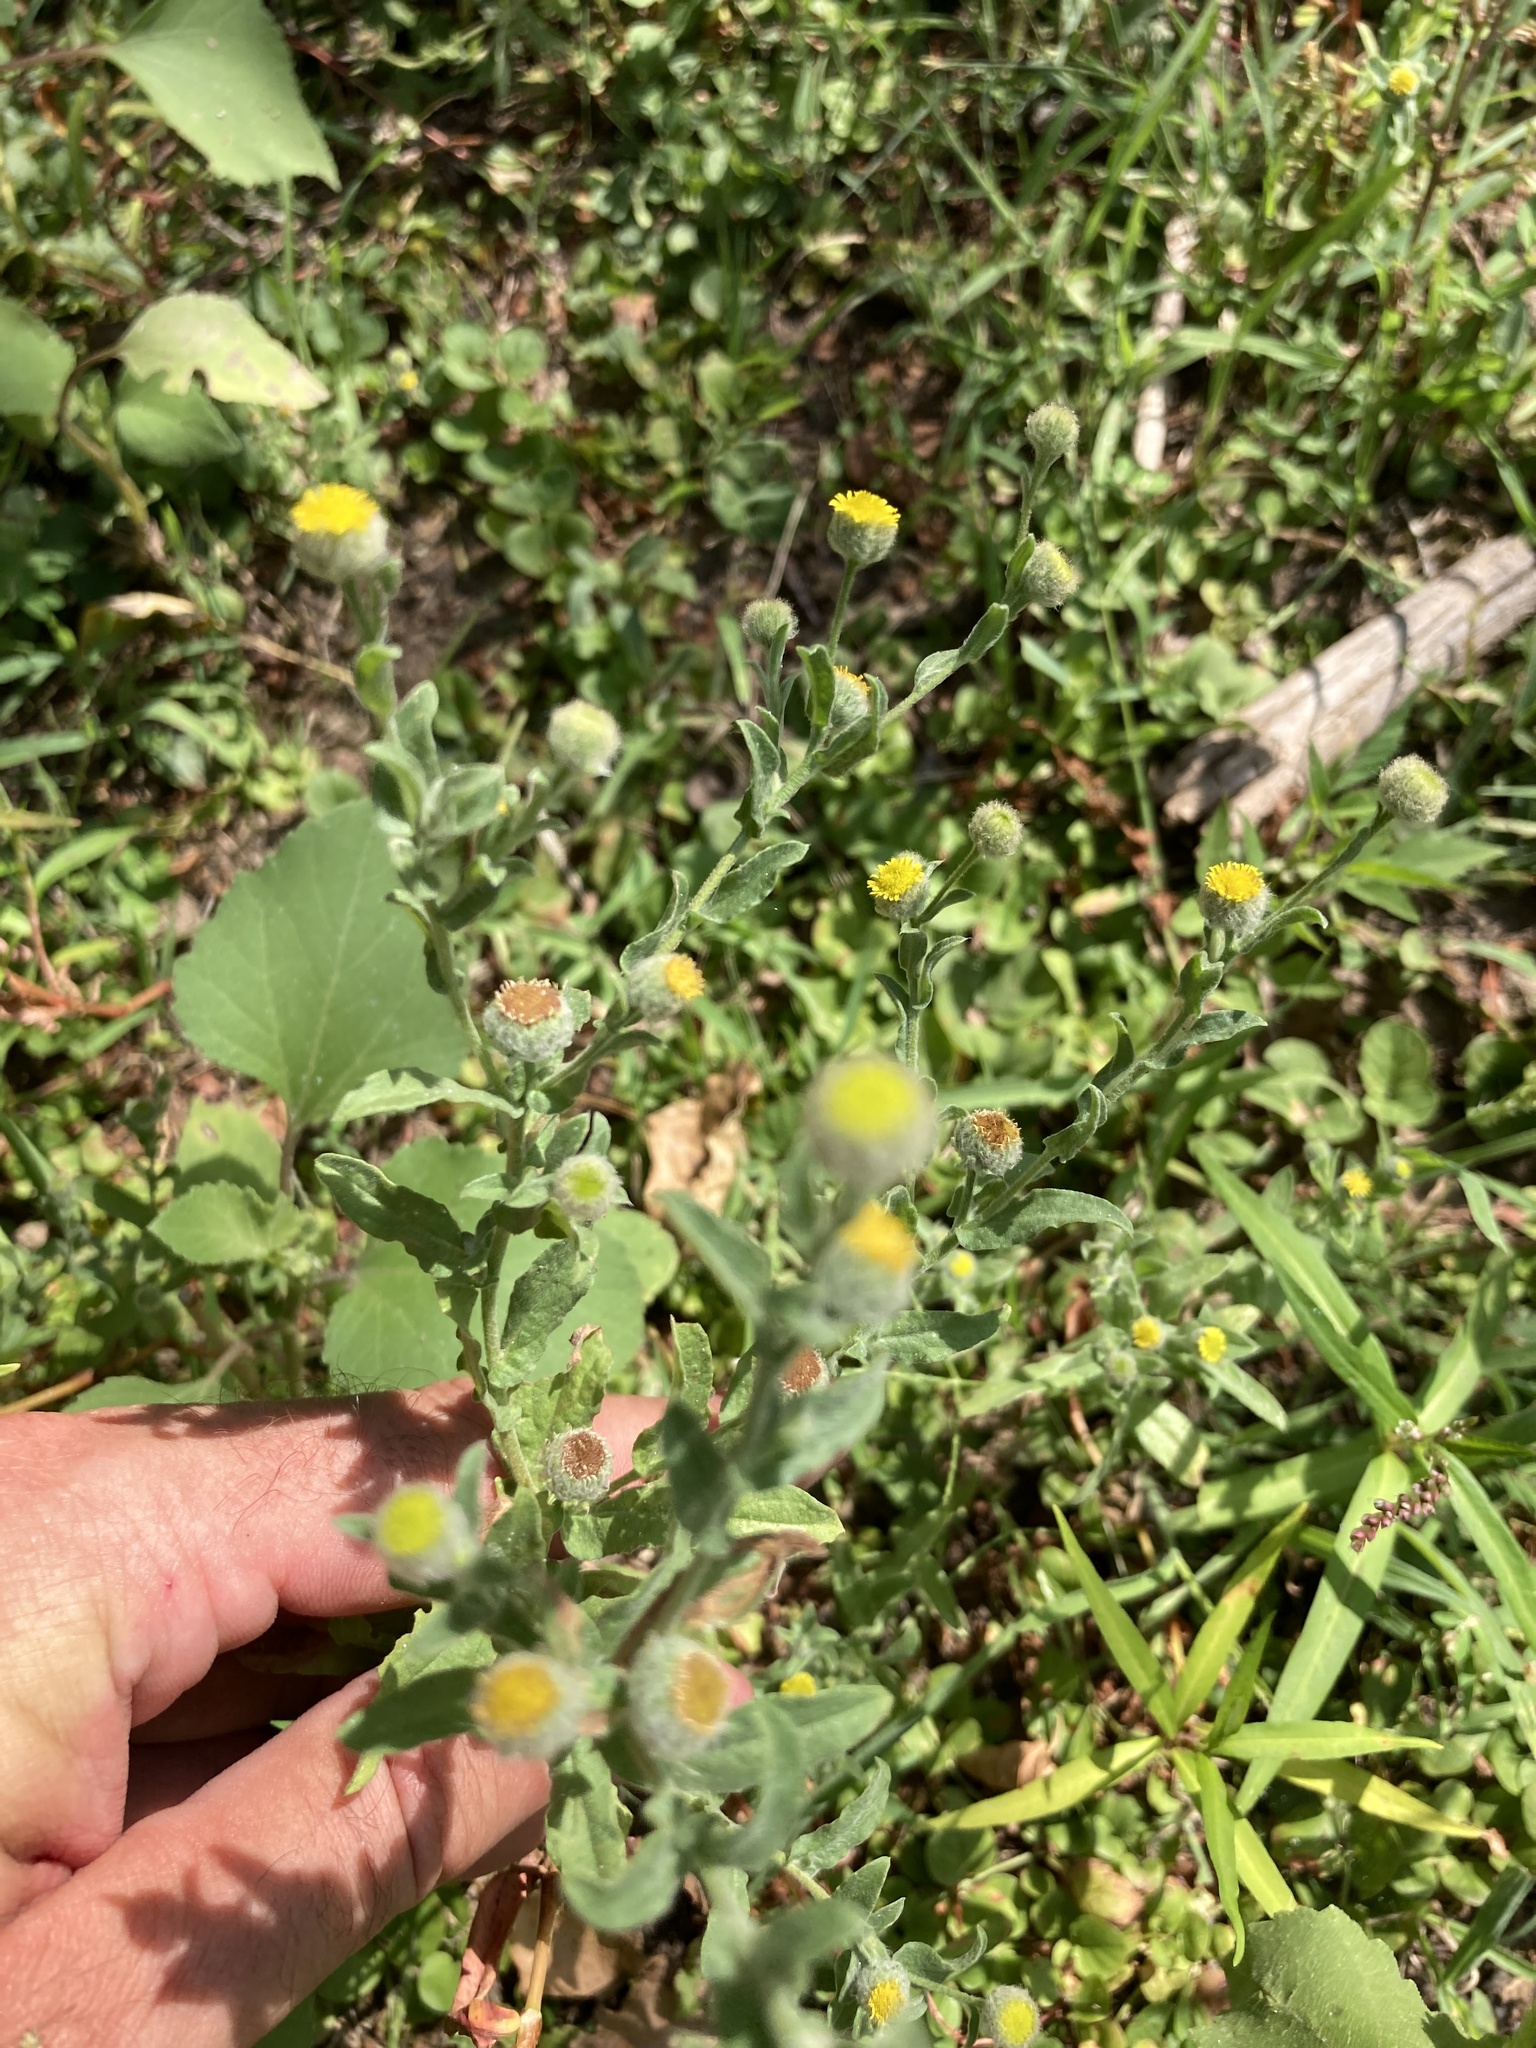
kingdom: Plantae
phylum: Tracheophyta
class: Magnoliopsida
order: Asterales
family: Asteraceae
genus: Pulicaria
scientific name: Pulicaria vulgaris
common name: Small fleabane
